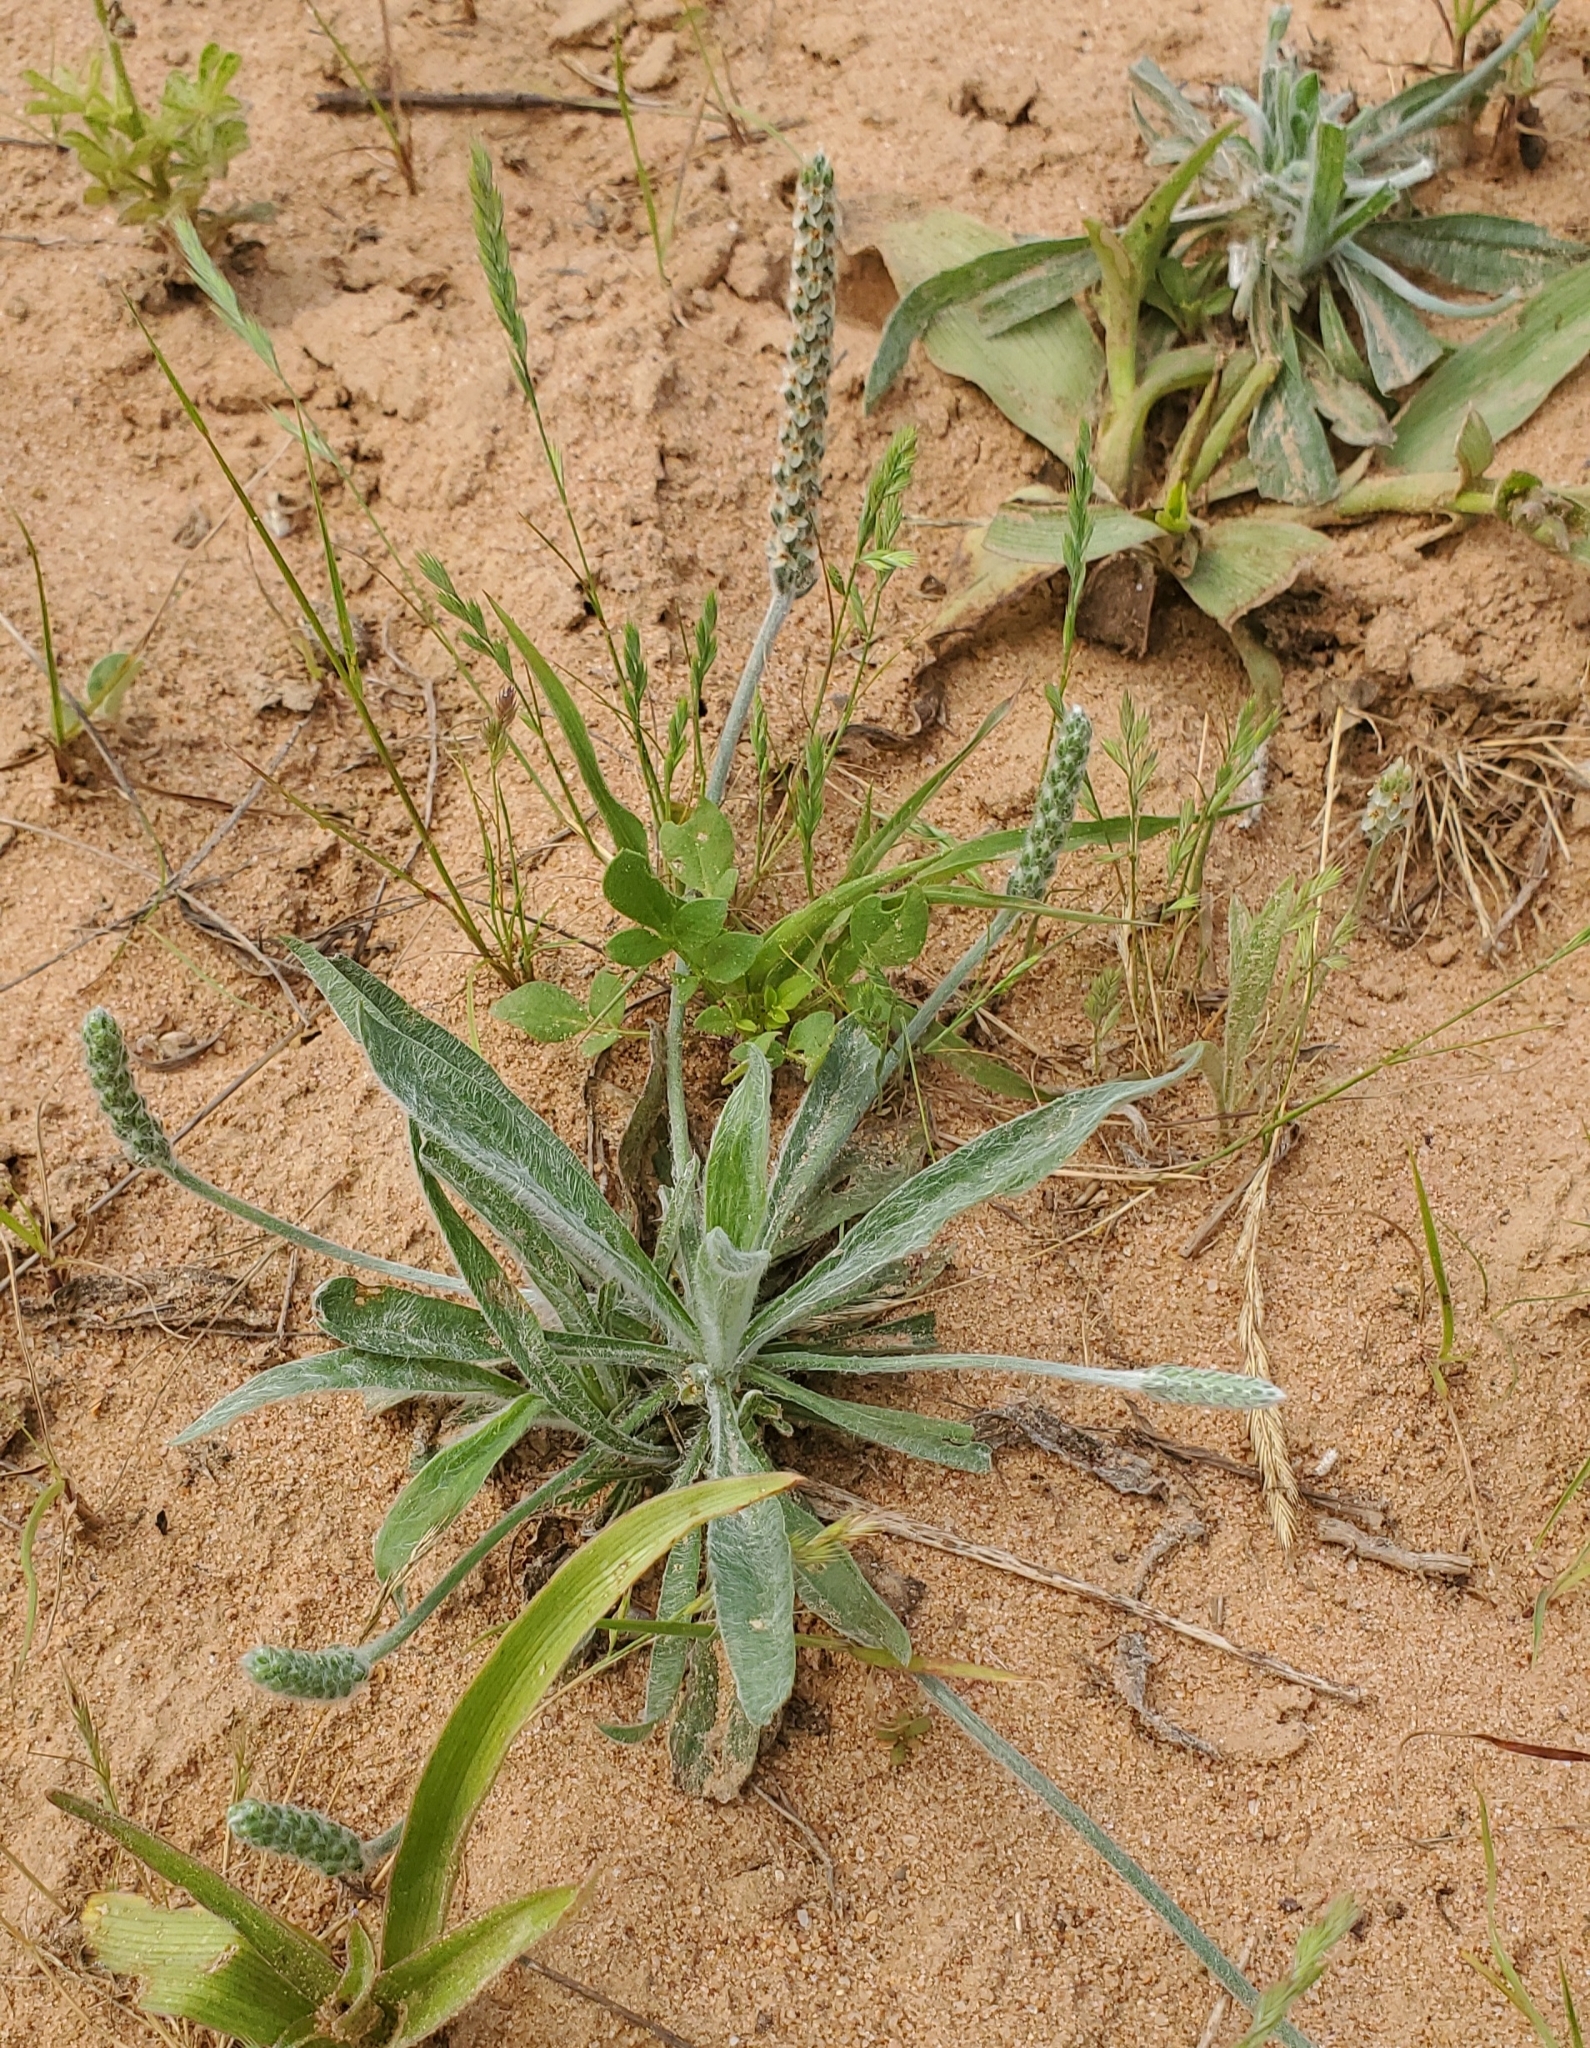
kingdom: Plantae
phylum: Tracheophyta
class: Magnoliopsida
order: Lamiales
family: Plantaginaceae
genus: Plantago
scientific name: Plantago hookeriana
